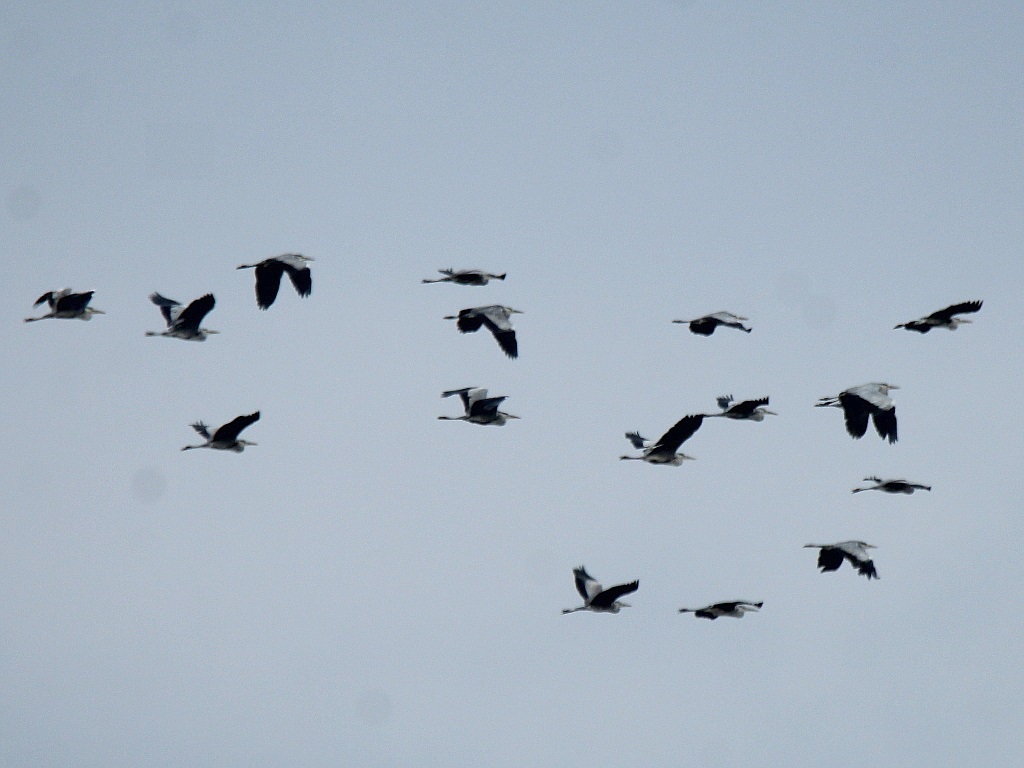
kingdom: Animalia
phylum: Chordata
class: Aves
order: Pelecaniformes
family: Ardeidae
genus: Ardea
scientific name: Ardea cinerea
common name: Grey heron
